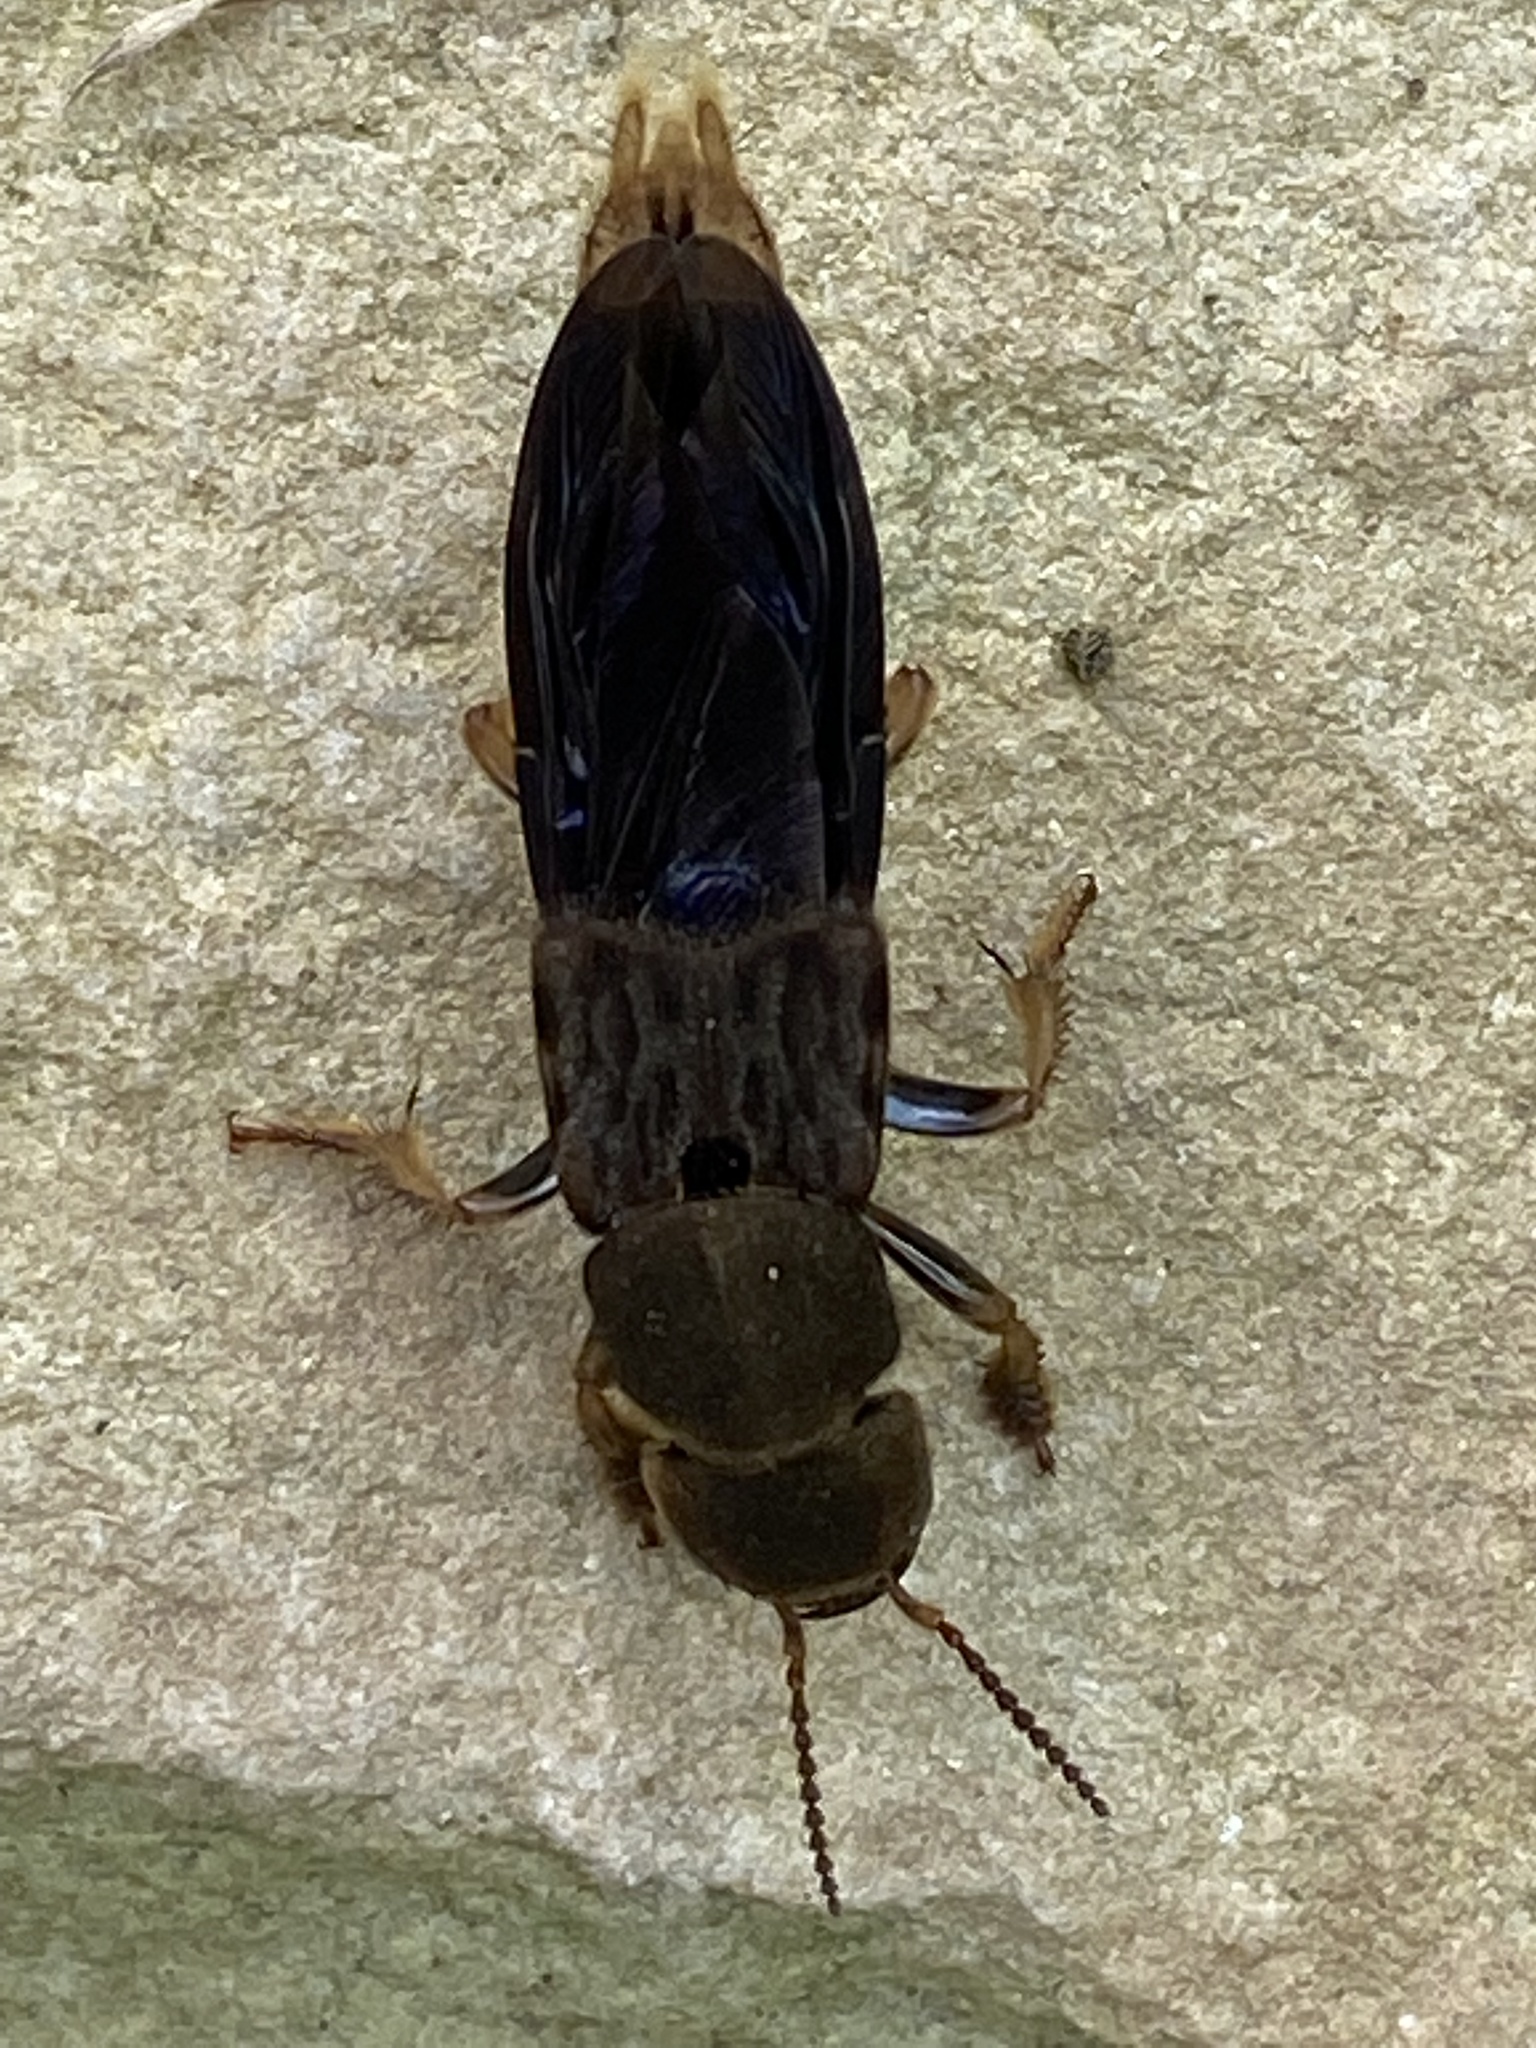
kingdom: Animalia
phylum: Arthropoda
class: Insecta
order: Coleoptera
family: Staphylinidae
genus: Platydracus
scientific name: Platydracus maculosus
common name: Brown rove beetle
